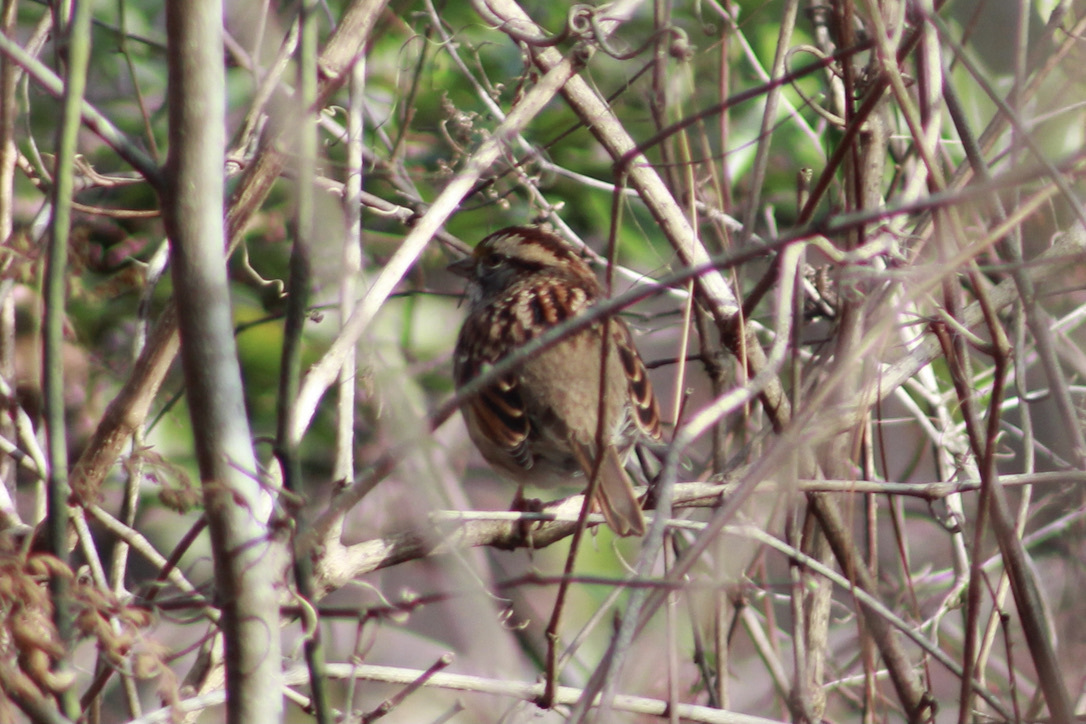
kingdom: Animalia
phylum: Chordata
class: Aves
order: Passeriformes
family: Passerellidae
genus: Zonotrichia
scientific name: Zonotrichia albicollis
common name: White-throated sparrow
